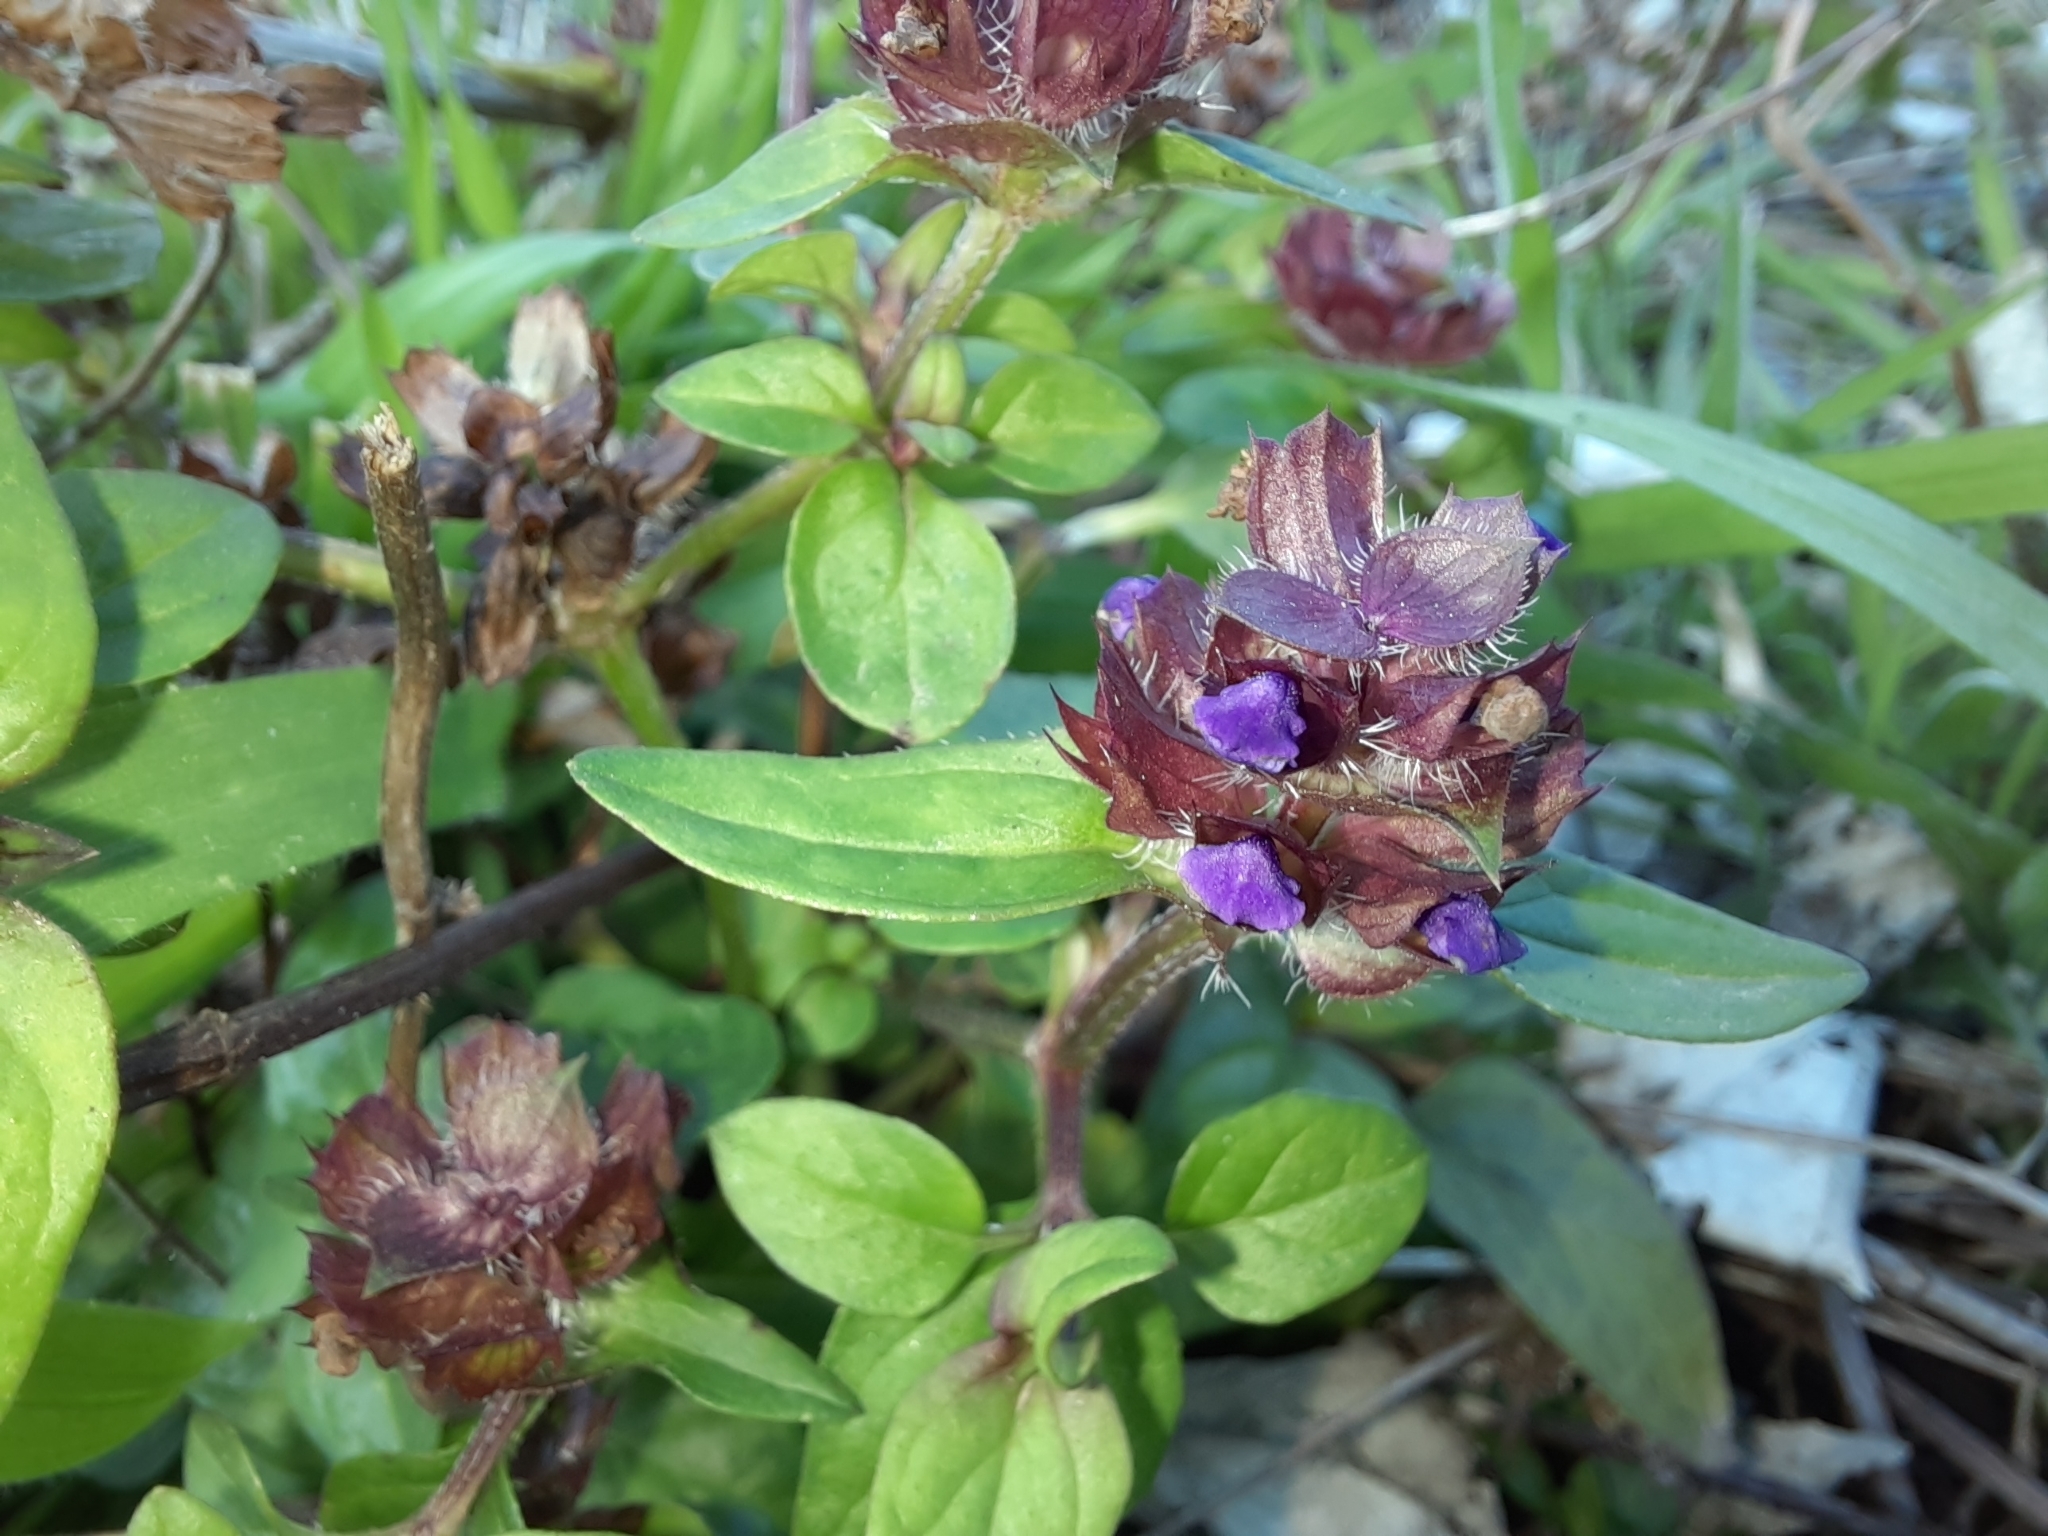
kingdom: Plantae
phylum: Tracheophyta
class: Magnoliopsida
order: Lamiales
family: Lamiaceae
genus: Prunella
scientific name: Prunella vulgaris
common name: Heal-all
